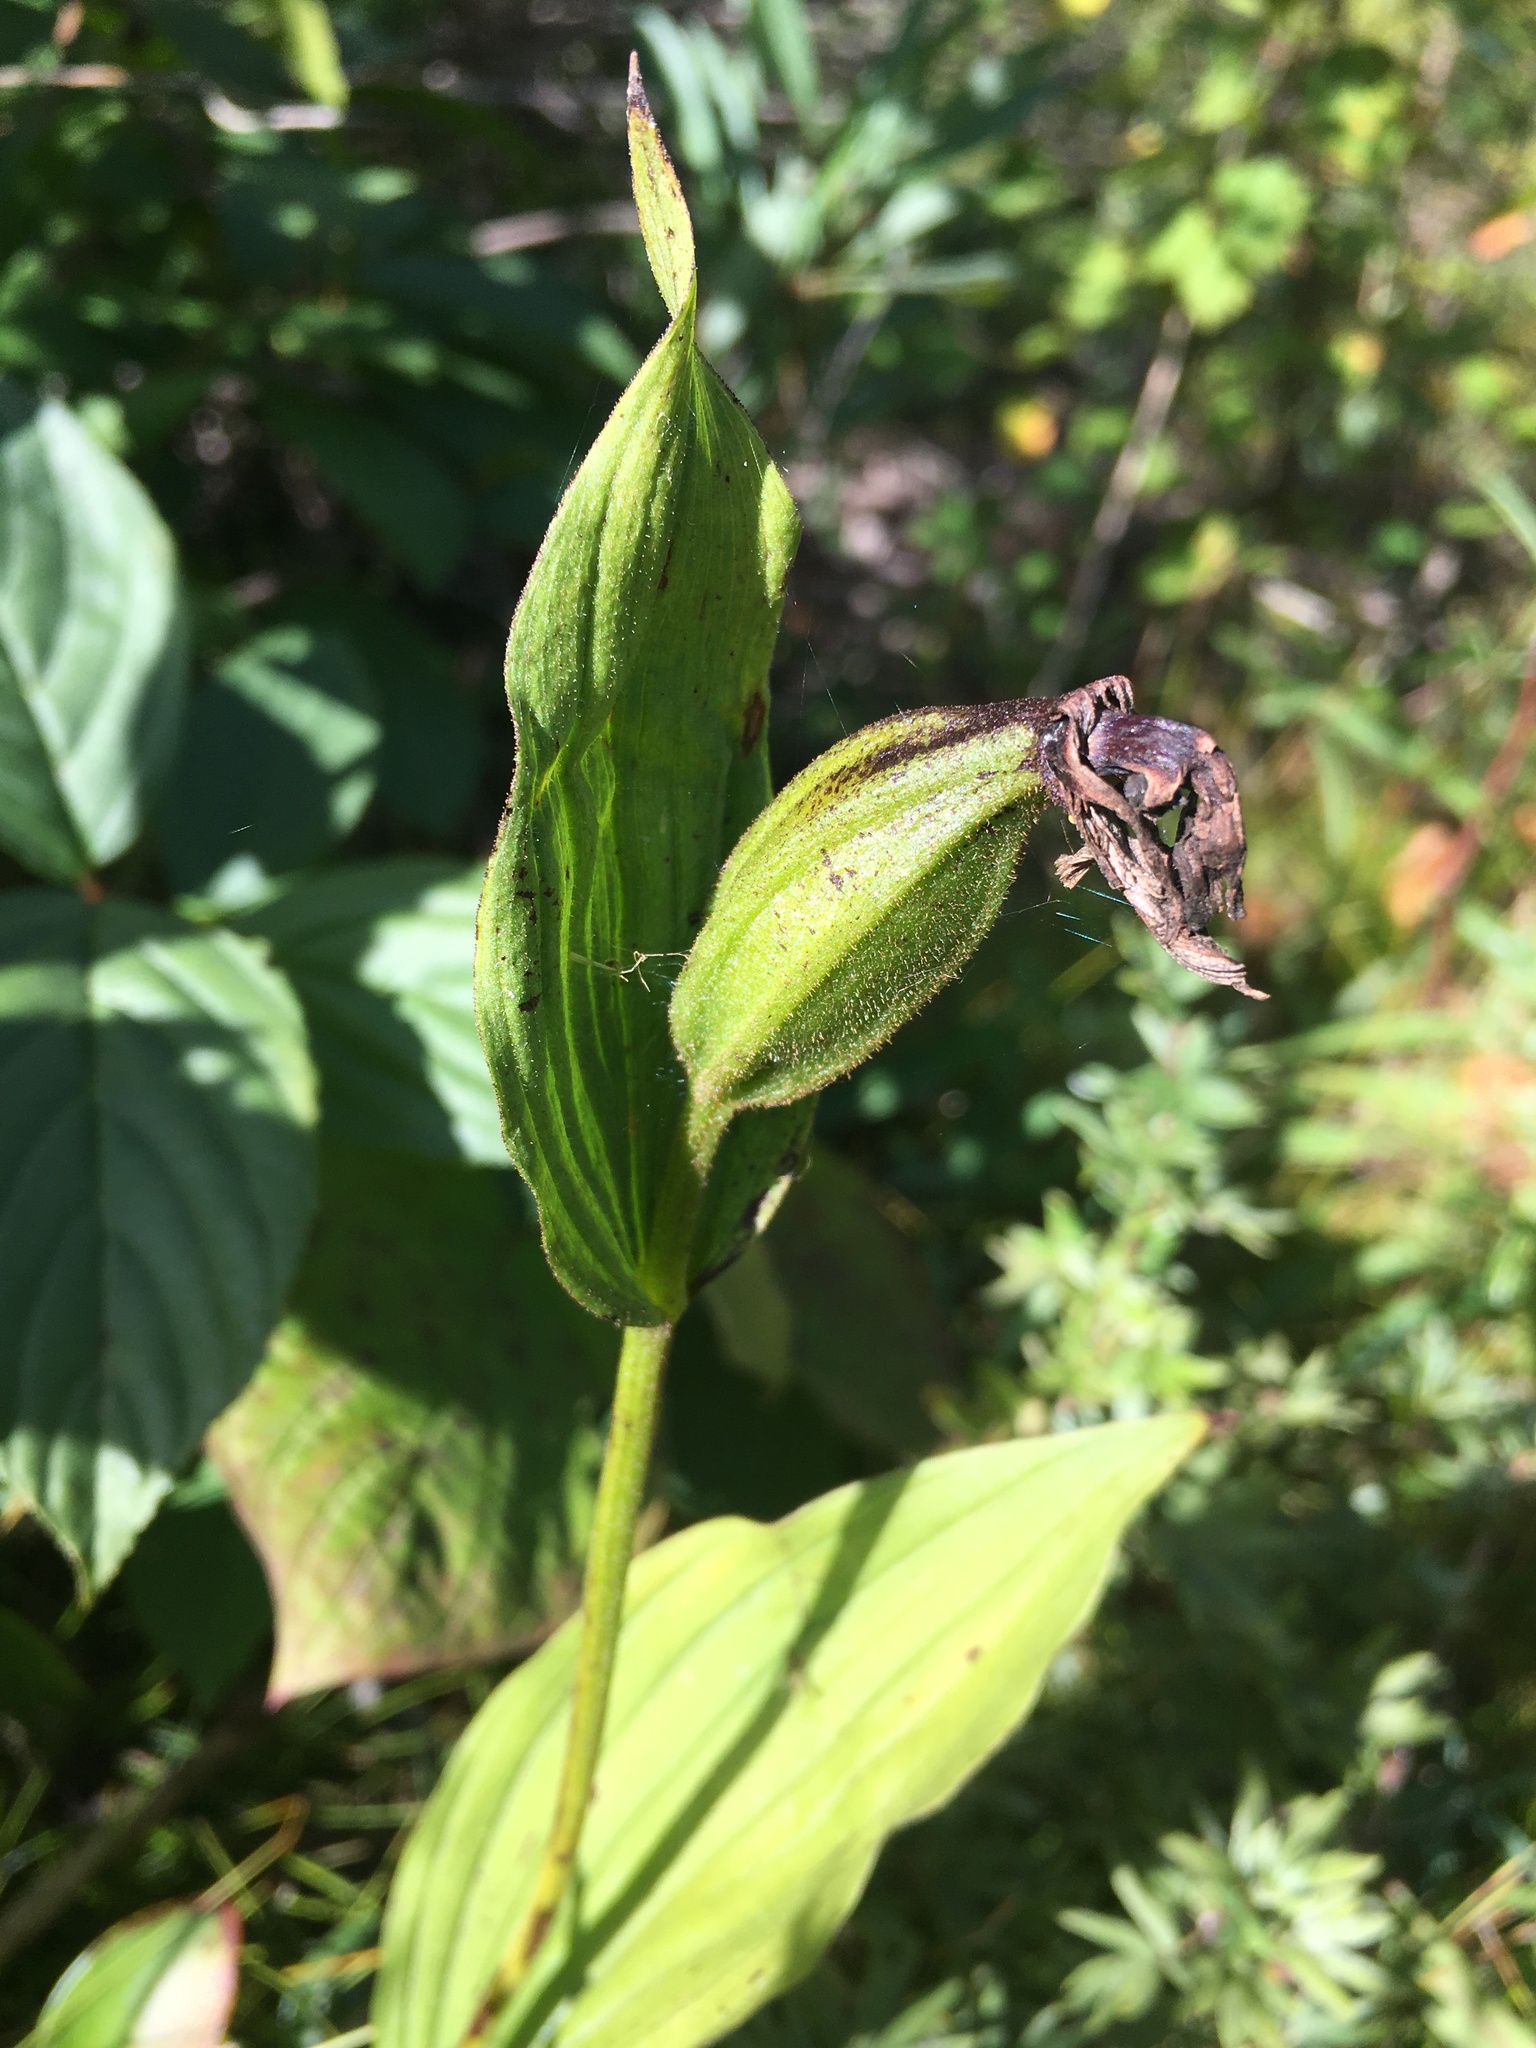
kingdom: Plantae
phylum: Tracheophyta
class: Liliopsida
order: Asparagales
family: Orchidaceae
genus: Cypripedium
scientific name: Cypripedium parviflorum
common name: American yellow lady's-slipper
